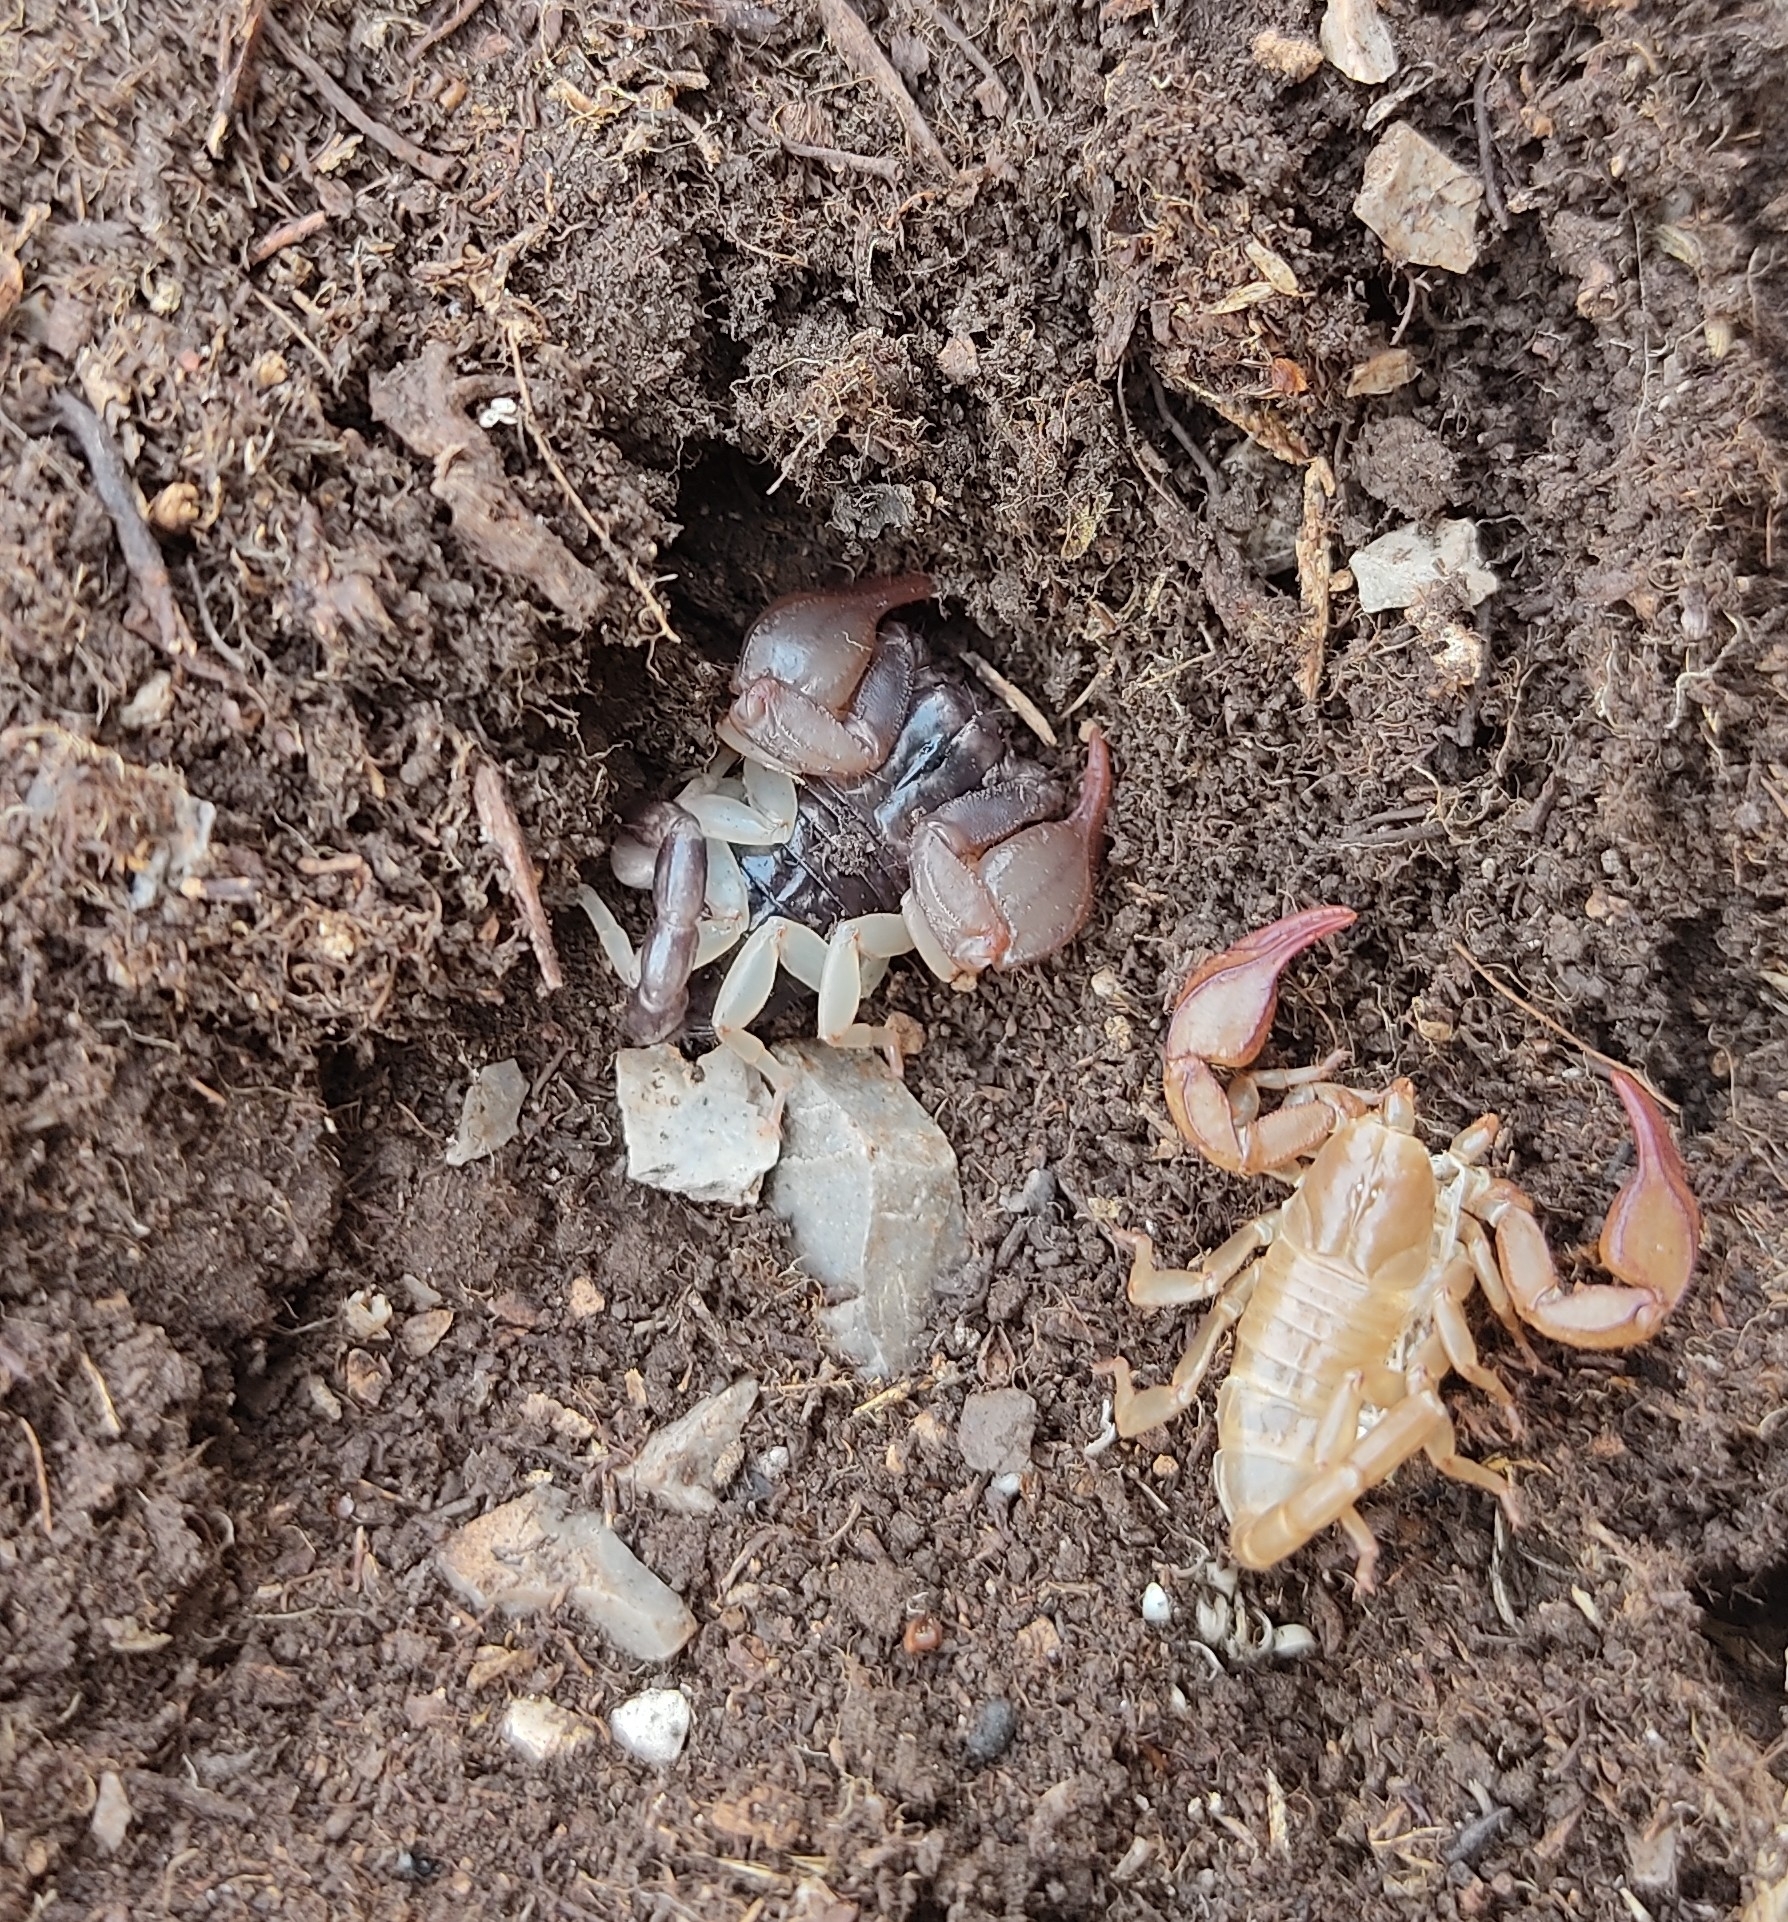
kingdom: Animalia
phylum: Arthropoda
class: Arachnida
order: Scorpiones
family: Euscorpiidae
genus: Euscorpius
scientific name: Euscorpius niciensis
